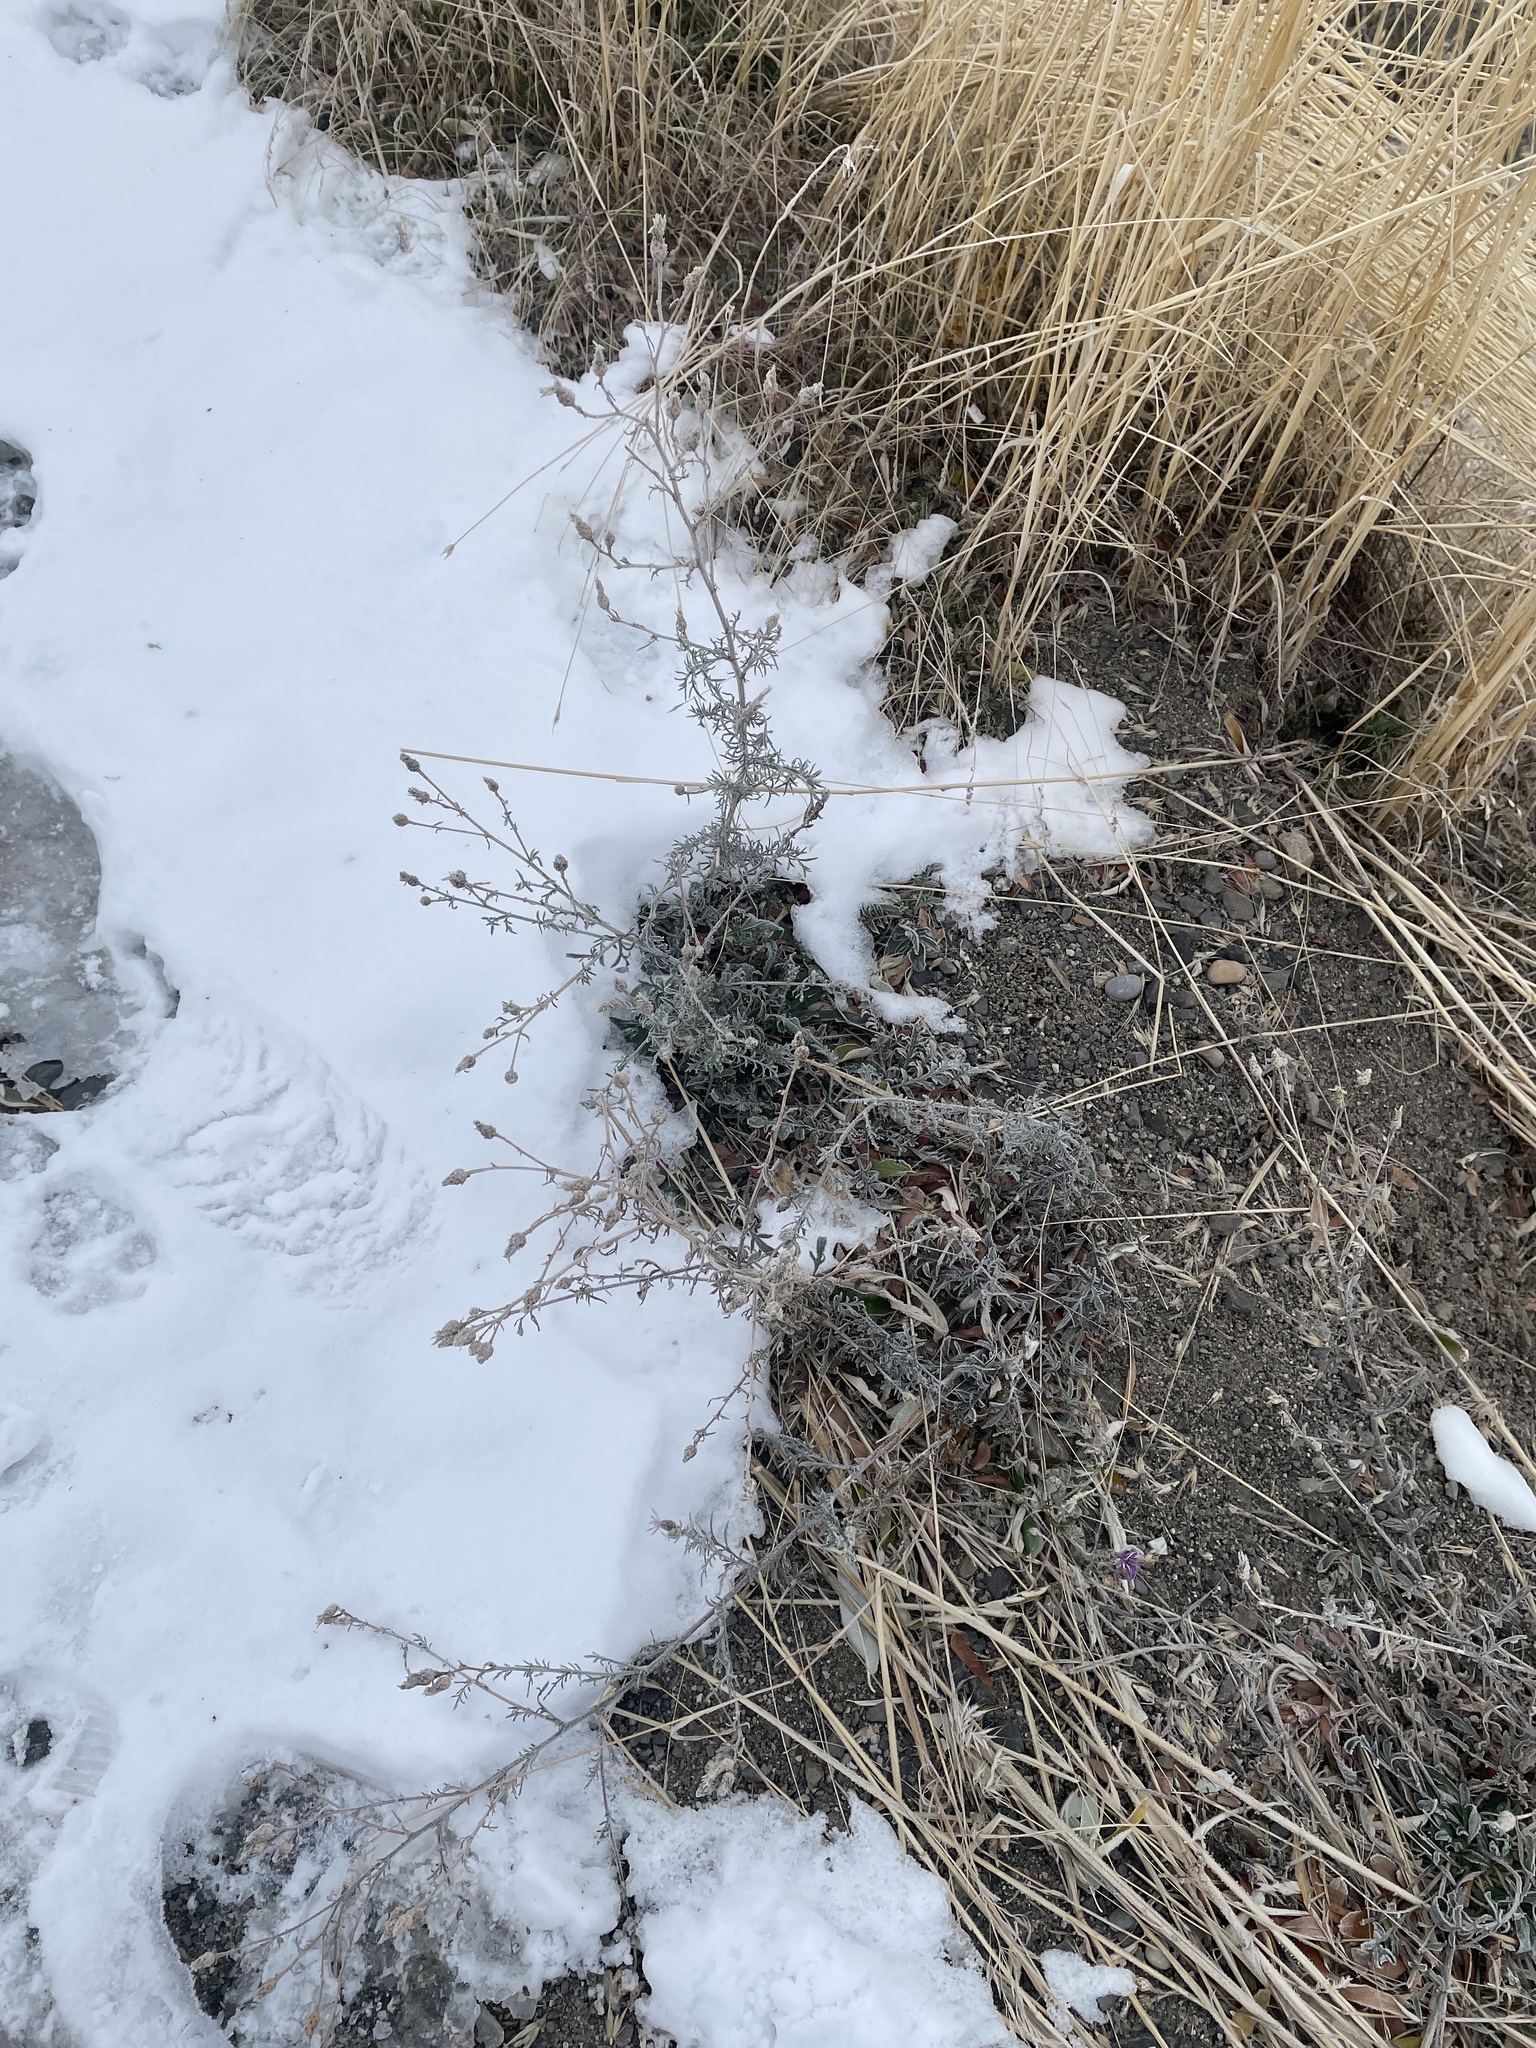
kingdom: Plantae
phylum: Tracheophyta
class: Magnoliopsida
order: Asterales
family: Asteraceae
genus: Centaurea
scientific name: Centaurea stoebe
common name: Spotted knapweed
